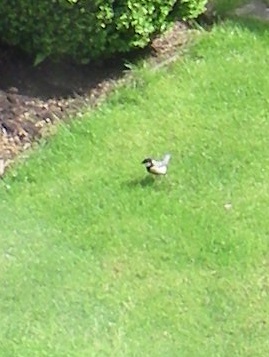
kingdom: Animalia
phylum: Chordata
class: Aves
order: Passeriformes
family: Paridae
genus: Parus
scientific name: Parus major
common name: Great tit
